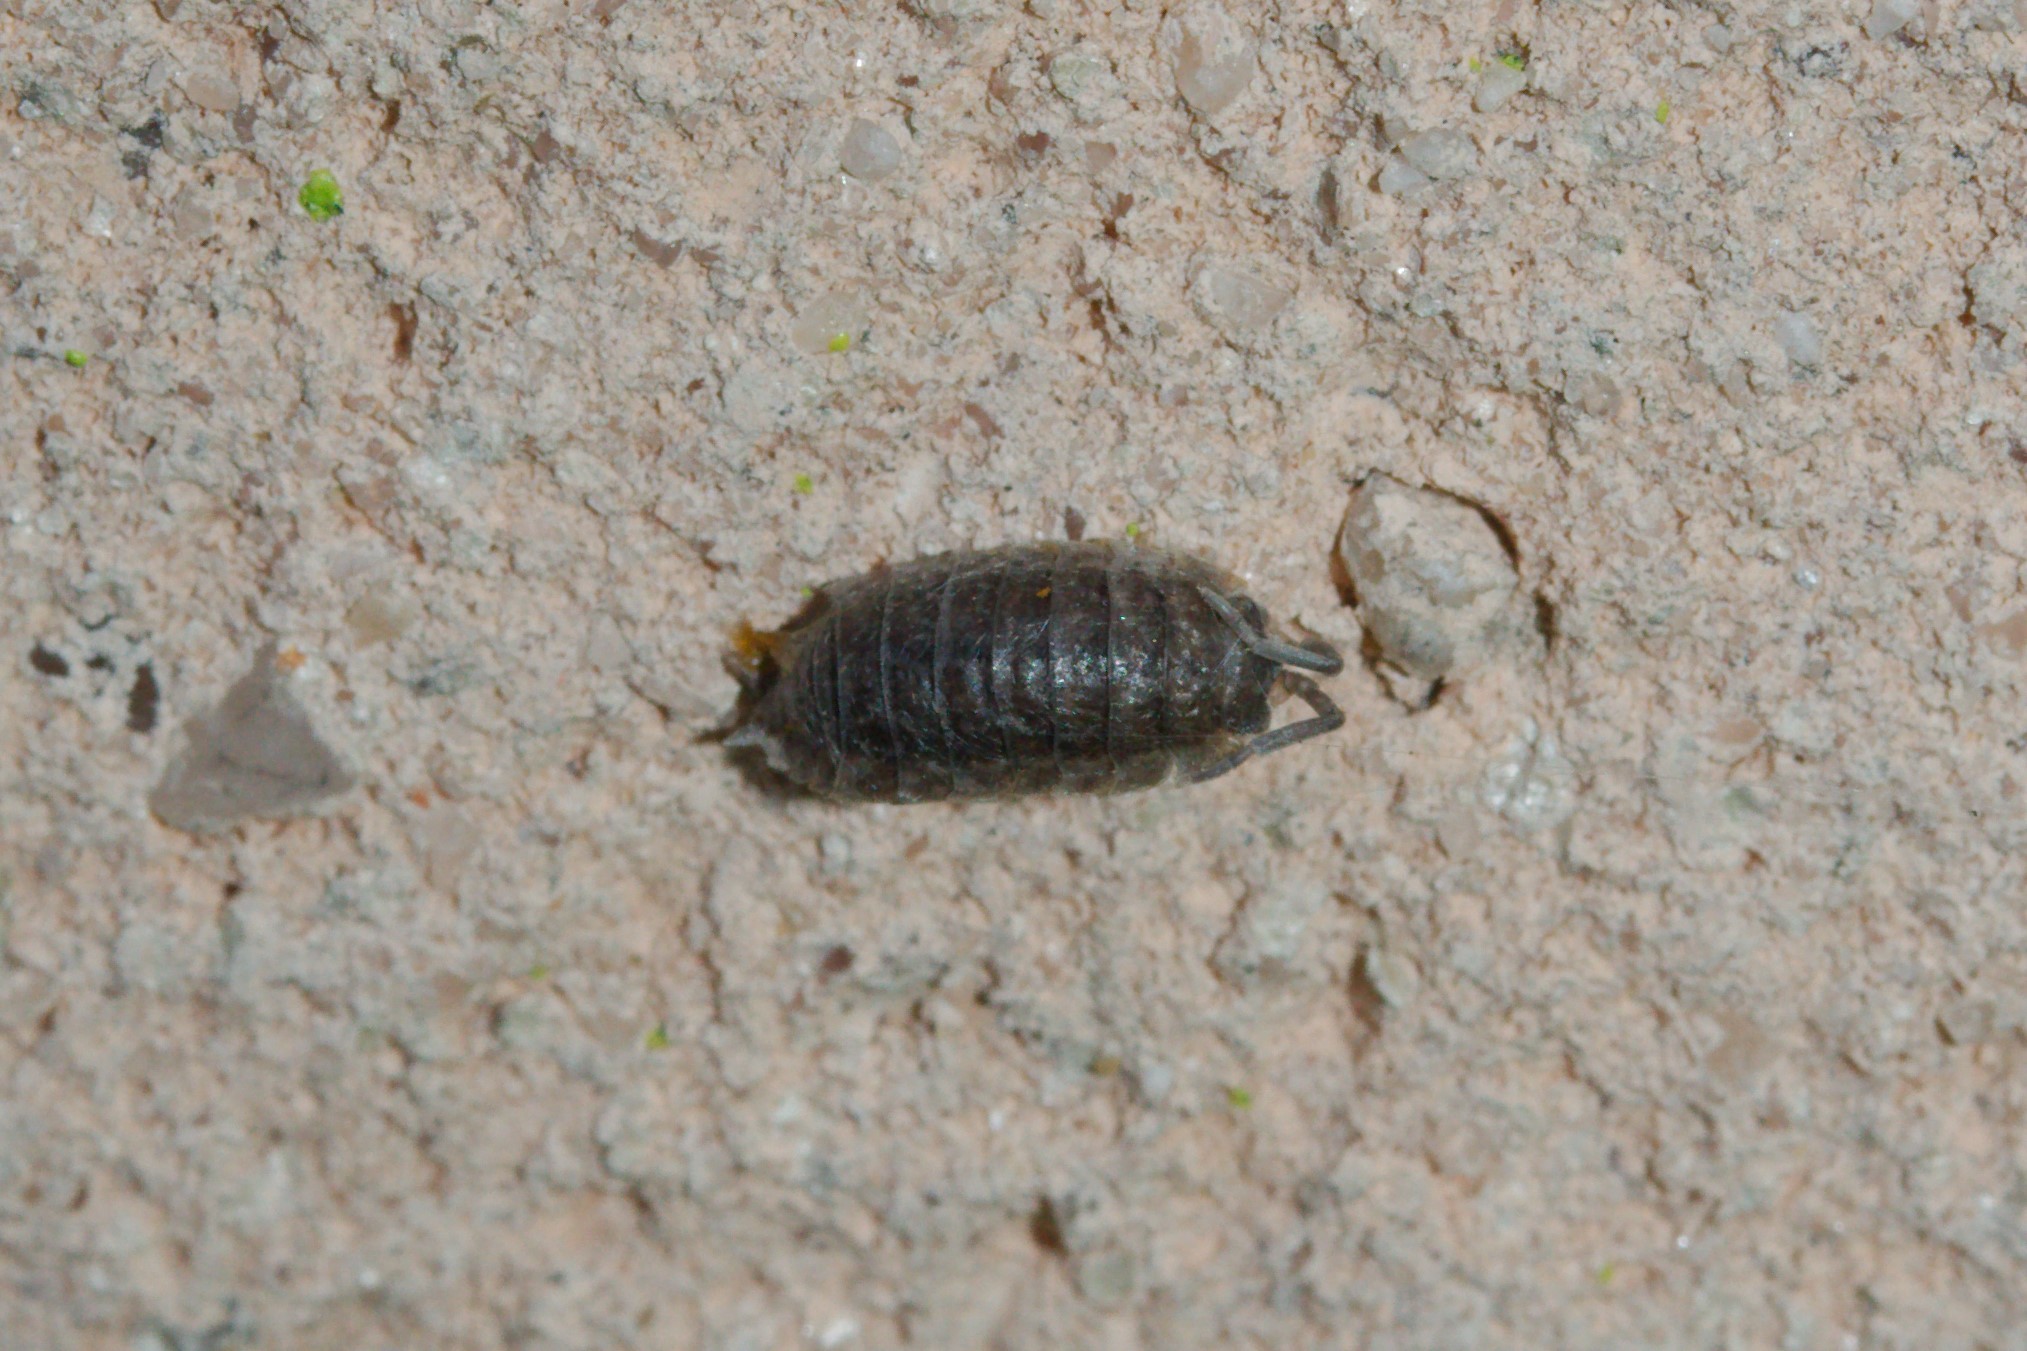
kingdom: Animalia
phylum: Arthropoda
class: Malacostraca
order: Isopoda
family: Porcellionidae
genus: Porcellio
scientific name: Porcellio scaber
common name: Common rough woodlouse
